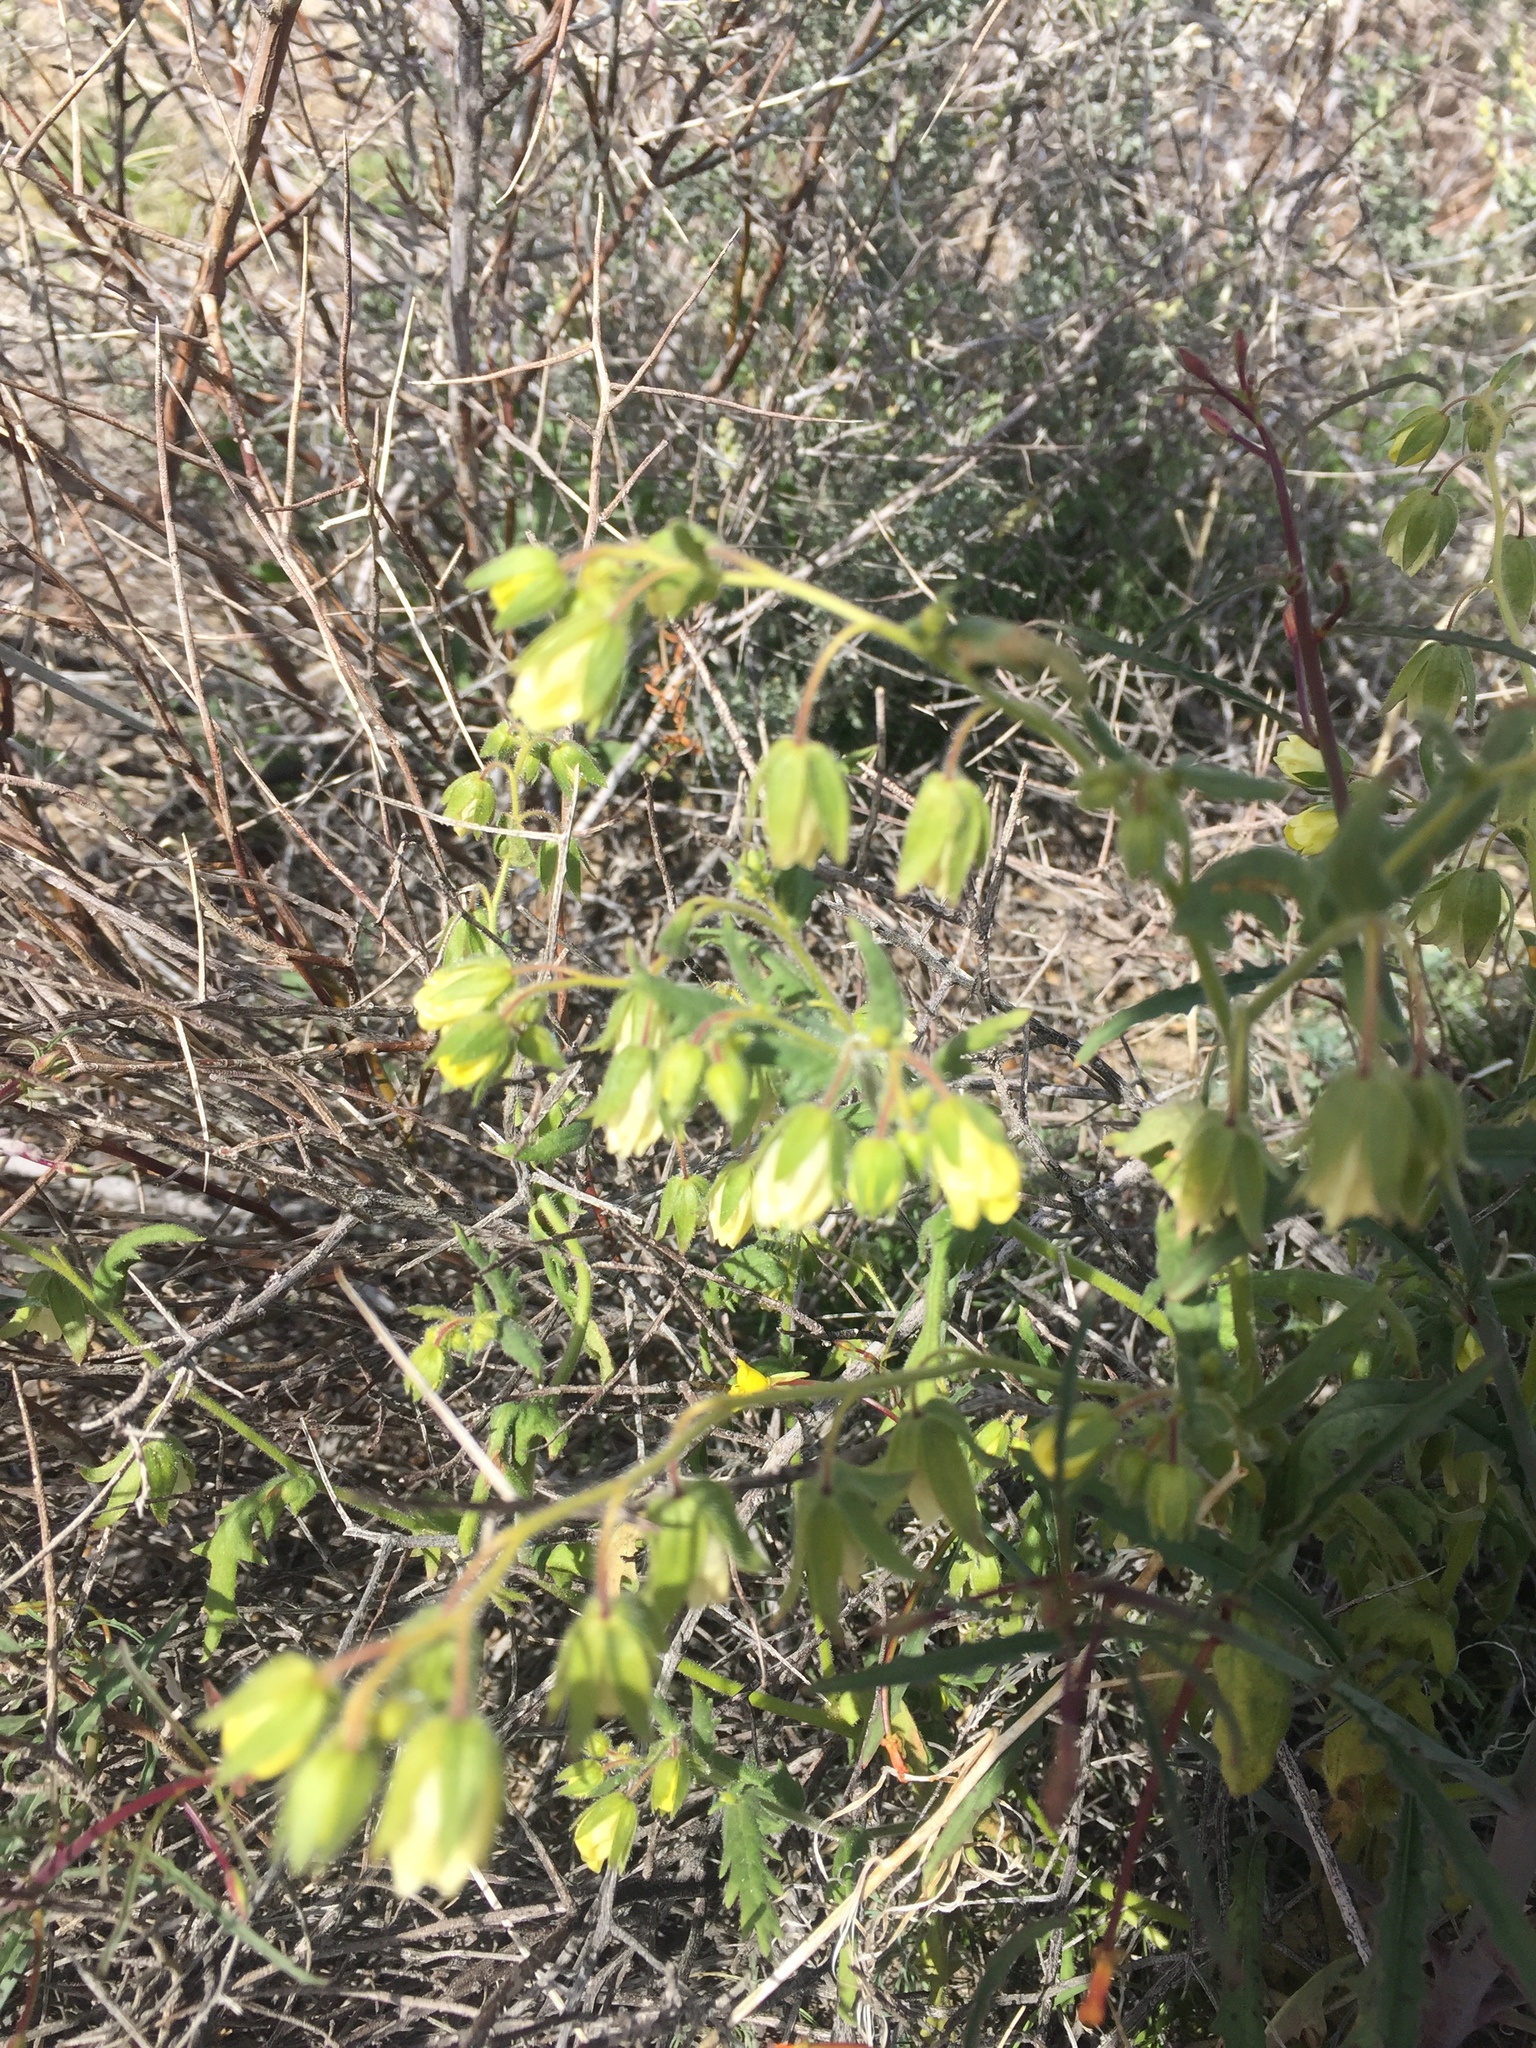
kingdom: Plantae
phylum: Tracheophyta
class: Magnoliopsida
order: Boraginales
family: Hydrophyllaceae
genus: Emmenanthe
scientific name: Emmenanthe penduliflora
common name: Whispering-bells
